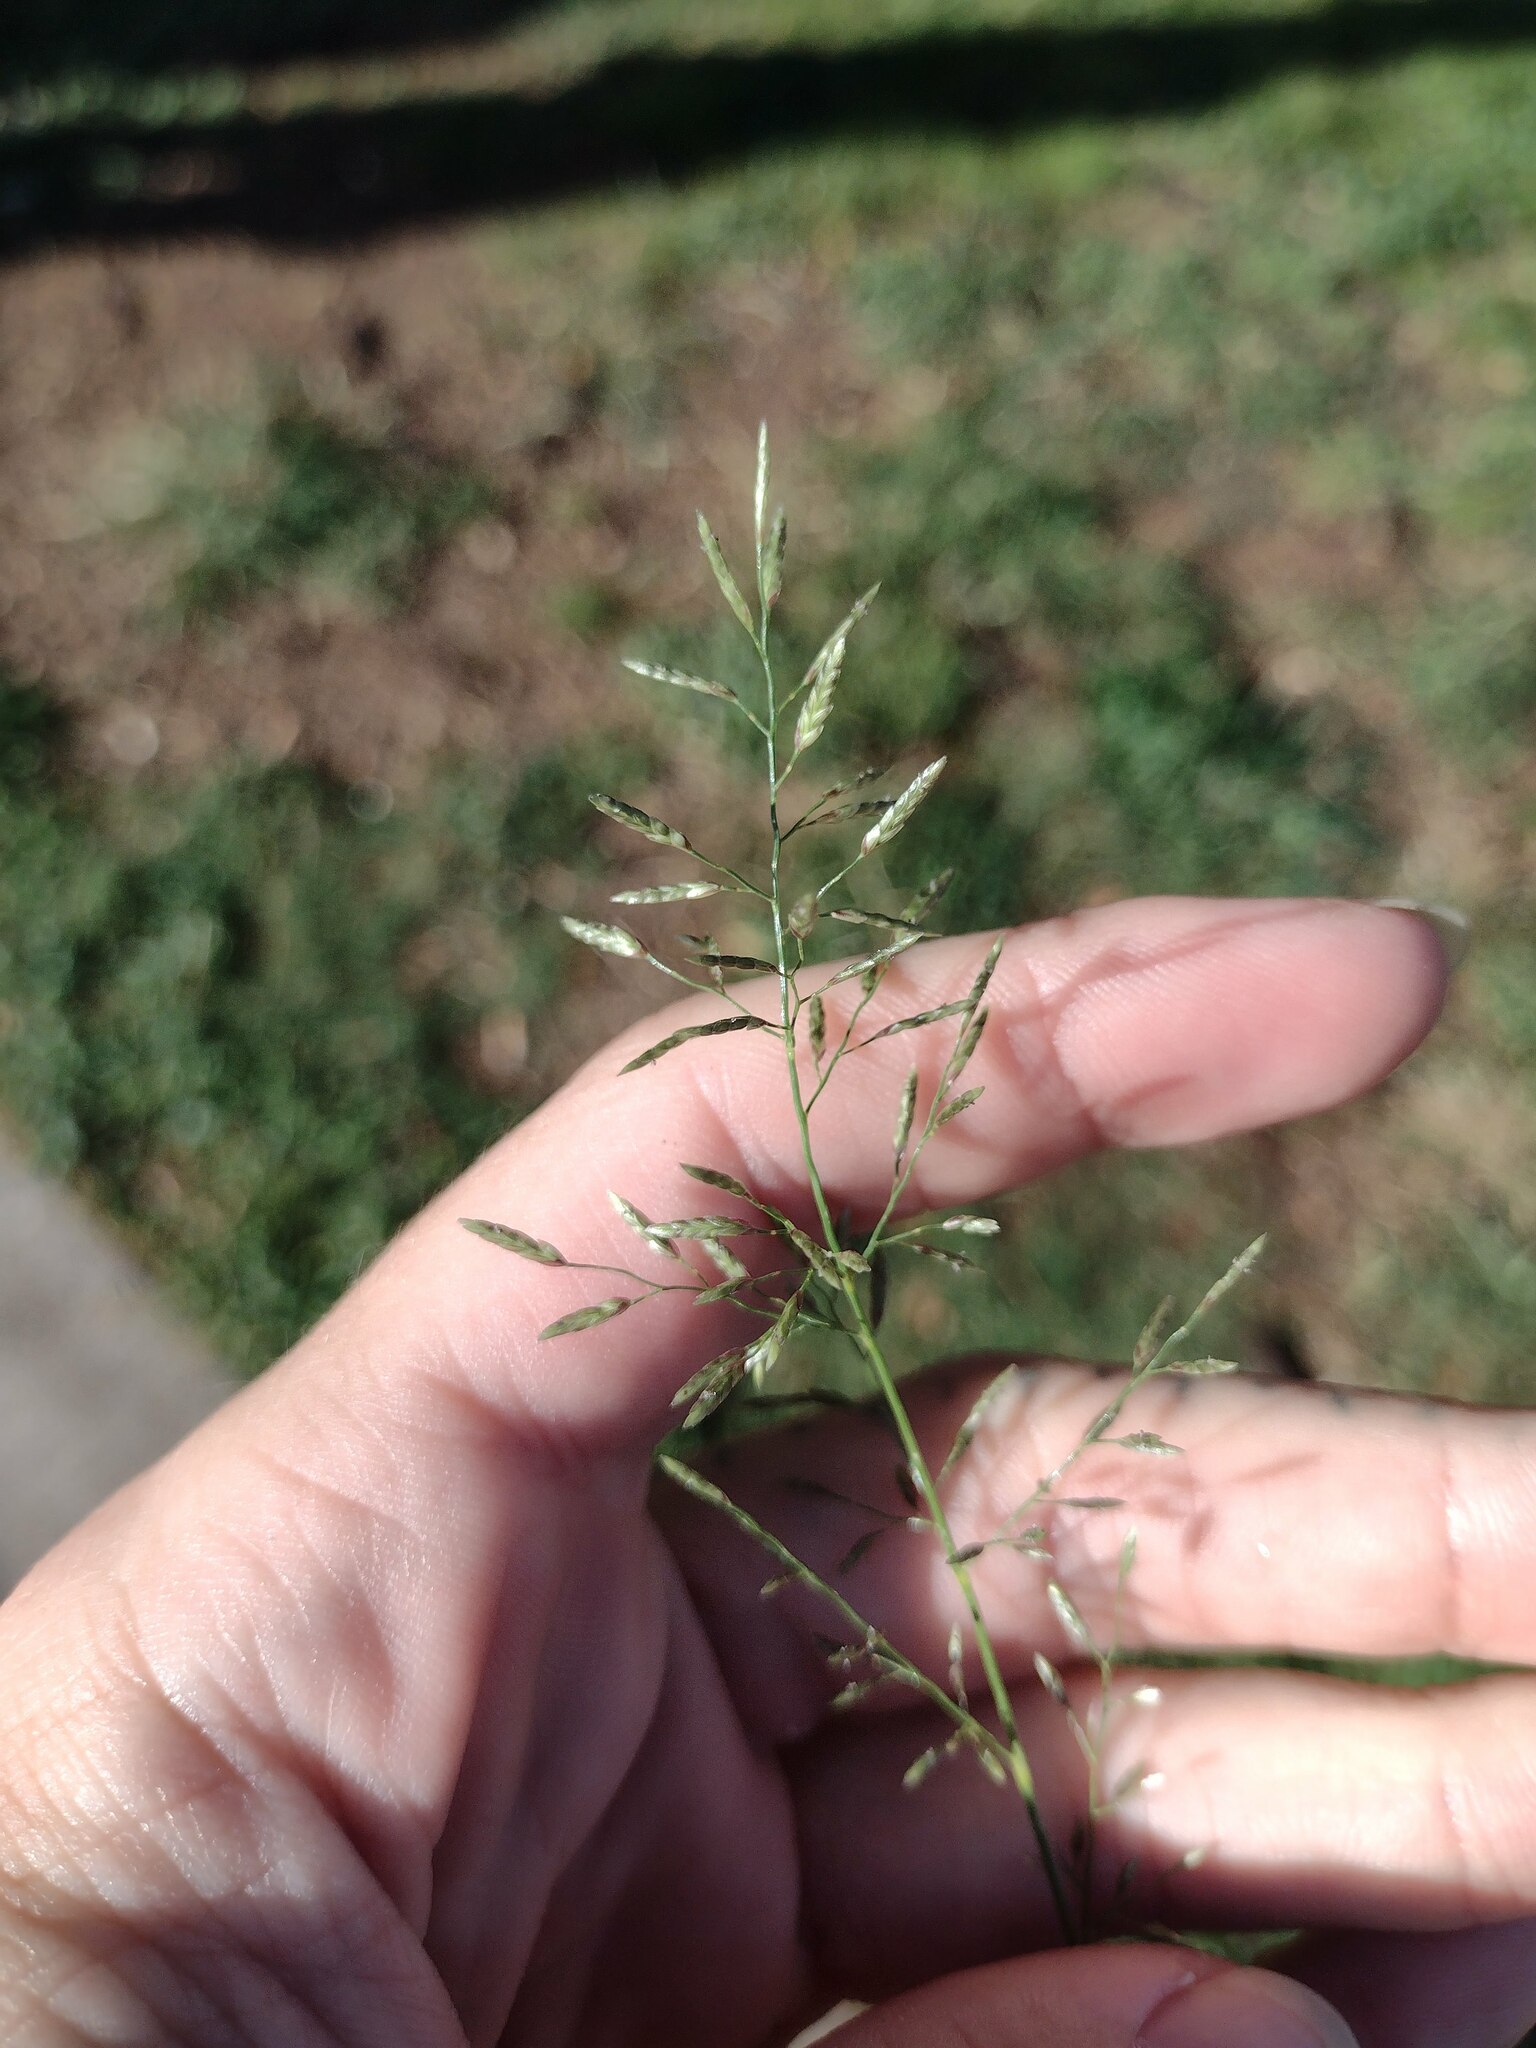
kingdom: Plantae
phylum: Tracheophyta
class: Liliopsida
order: Poales
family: Poaceae
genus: Eragrostis
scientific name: Eragrostis barrelieri
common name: Mediterranean lovegrass
